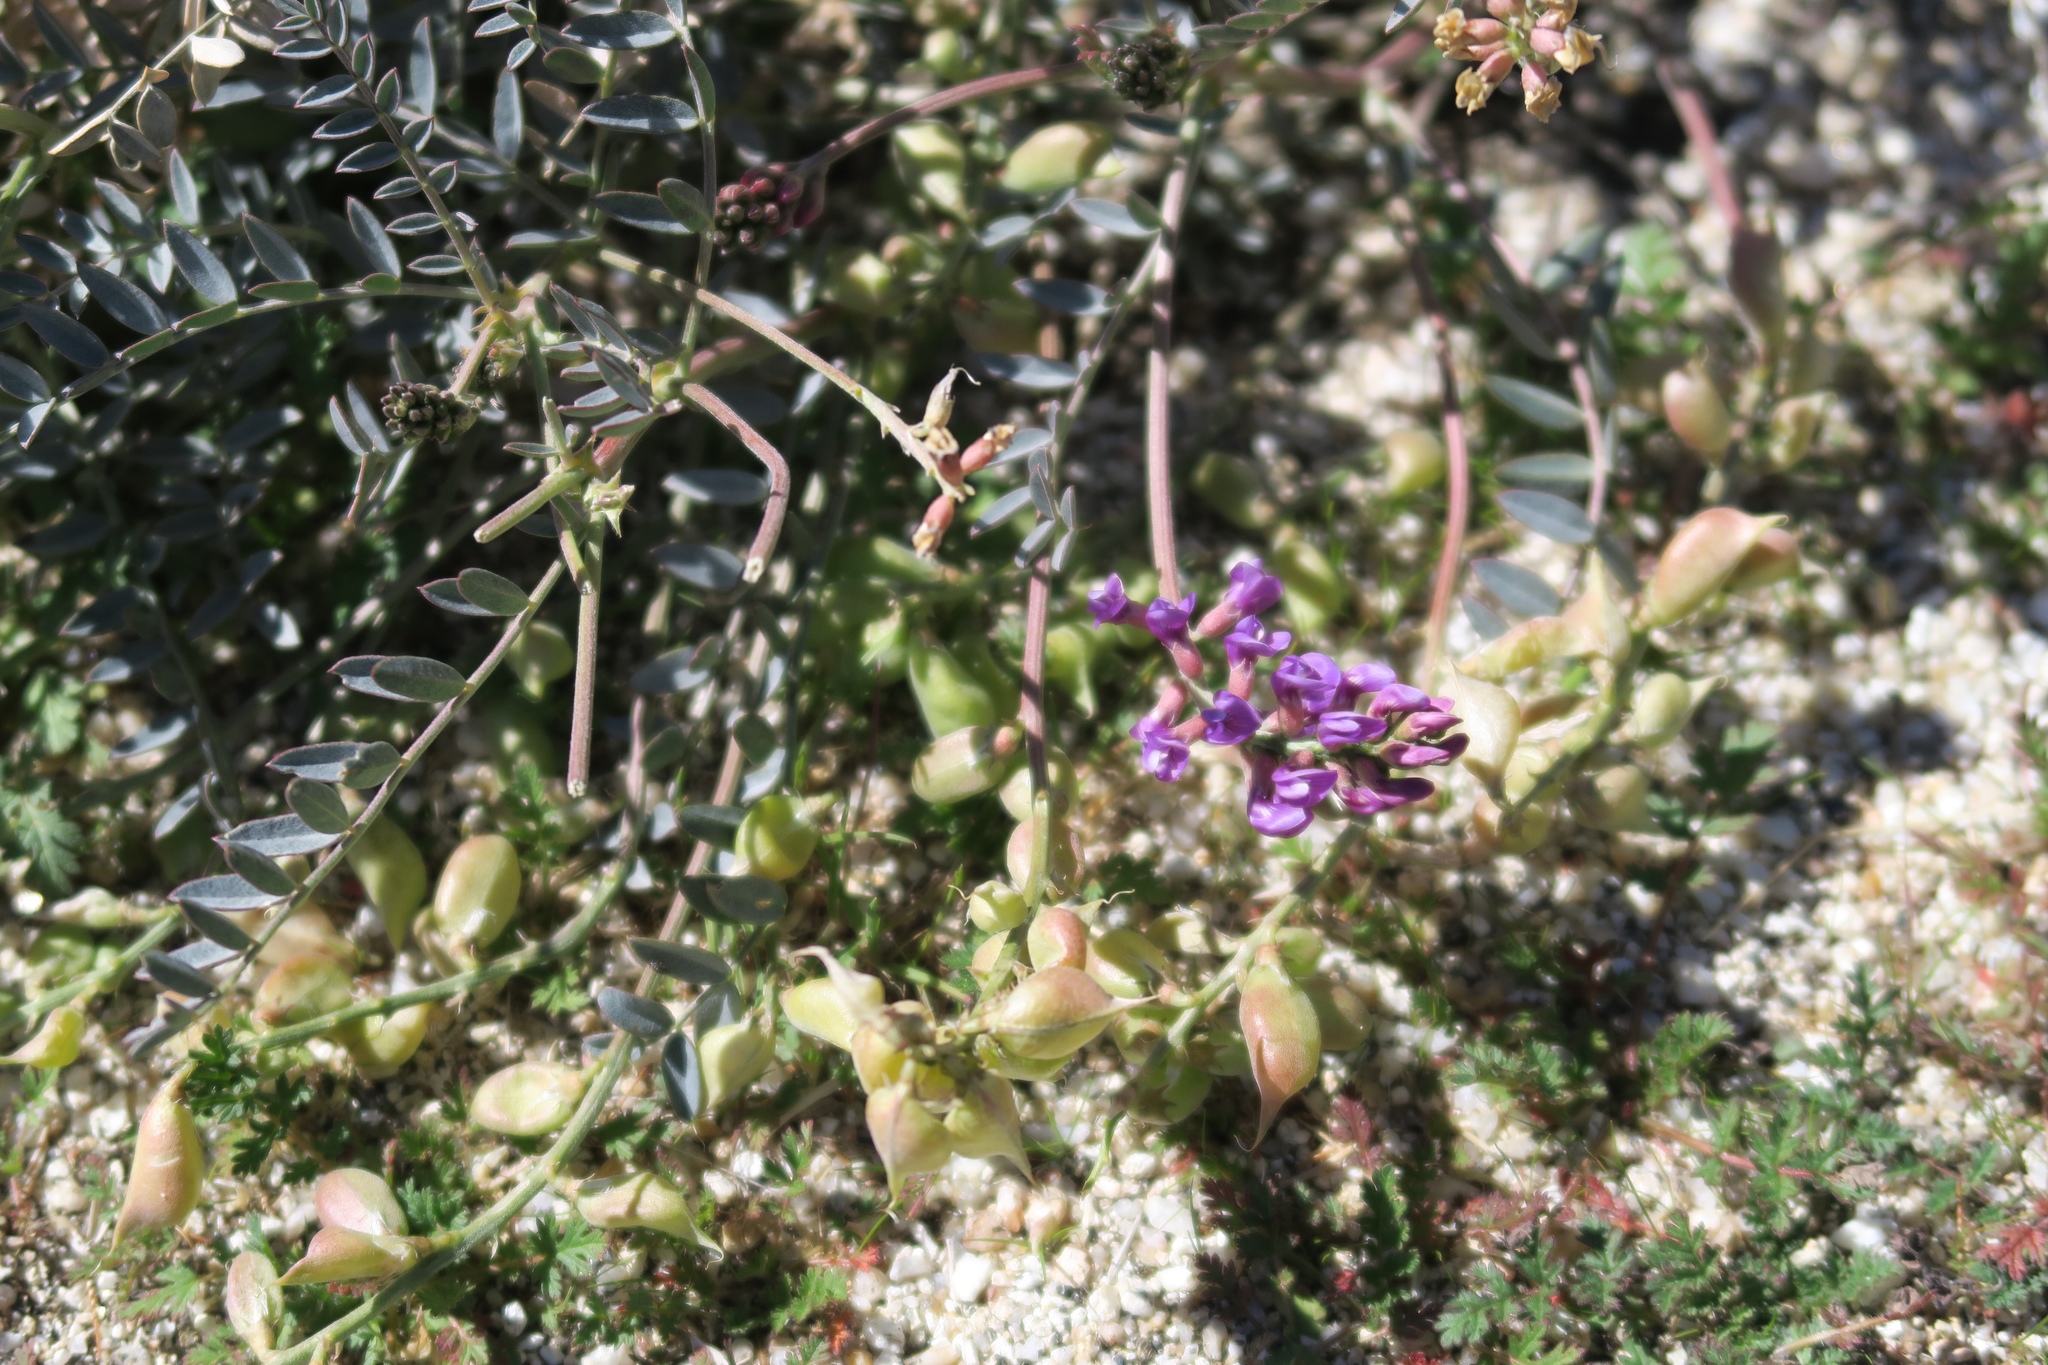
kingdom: Plantae
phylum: Tracheophyta
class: Magnoliopsida
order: Fabales
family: Fabaceae
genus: Astragalus
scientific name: Astragalus palmeri
